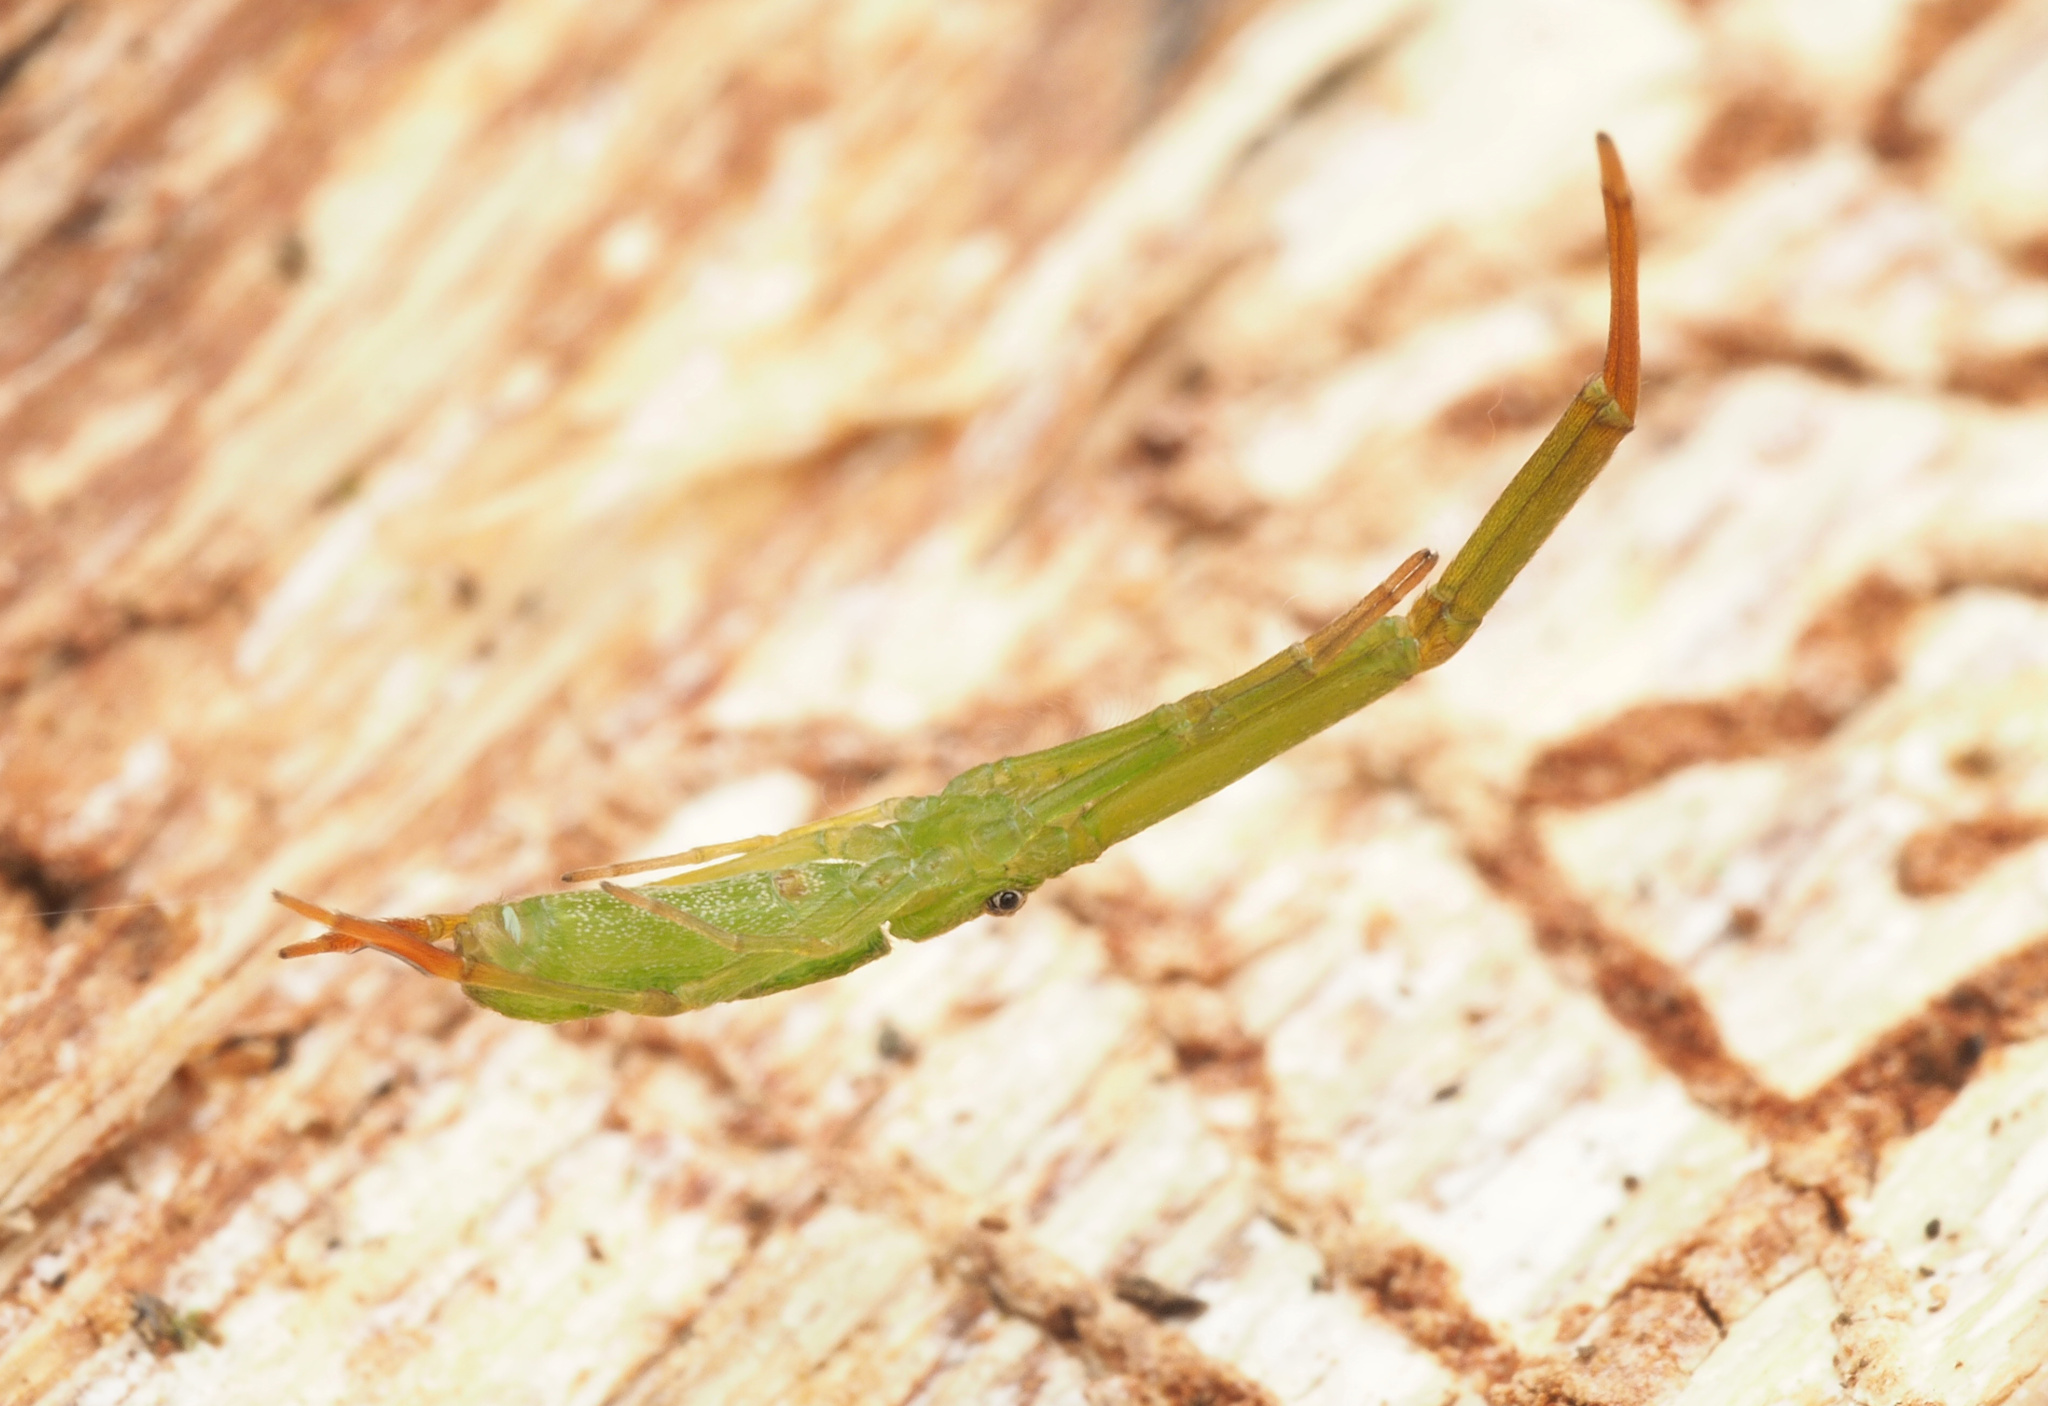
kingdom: Animalia
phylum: Arthropoda
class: Arachnida
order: Araneae
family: Uloboridae
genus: Miagrammopes
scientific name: Miagrammopes flavus
